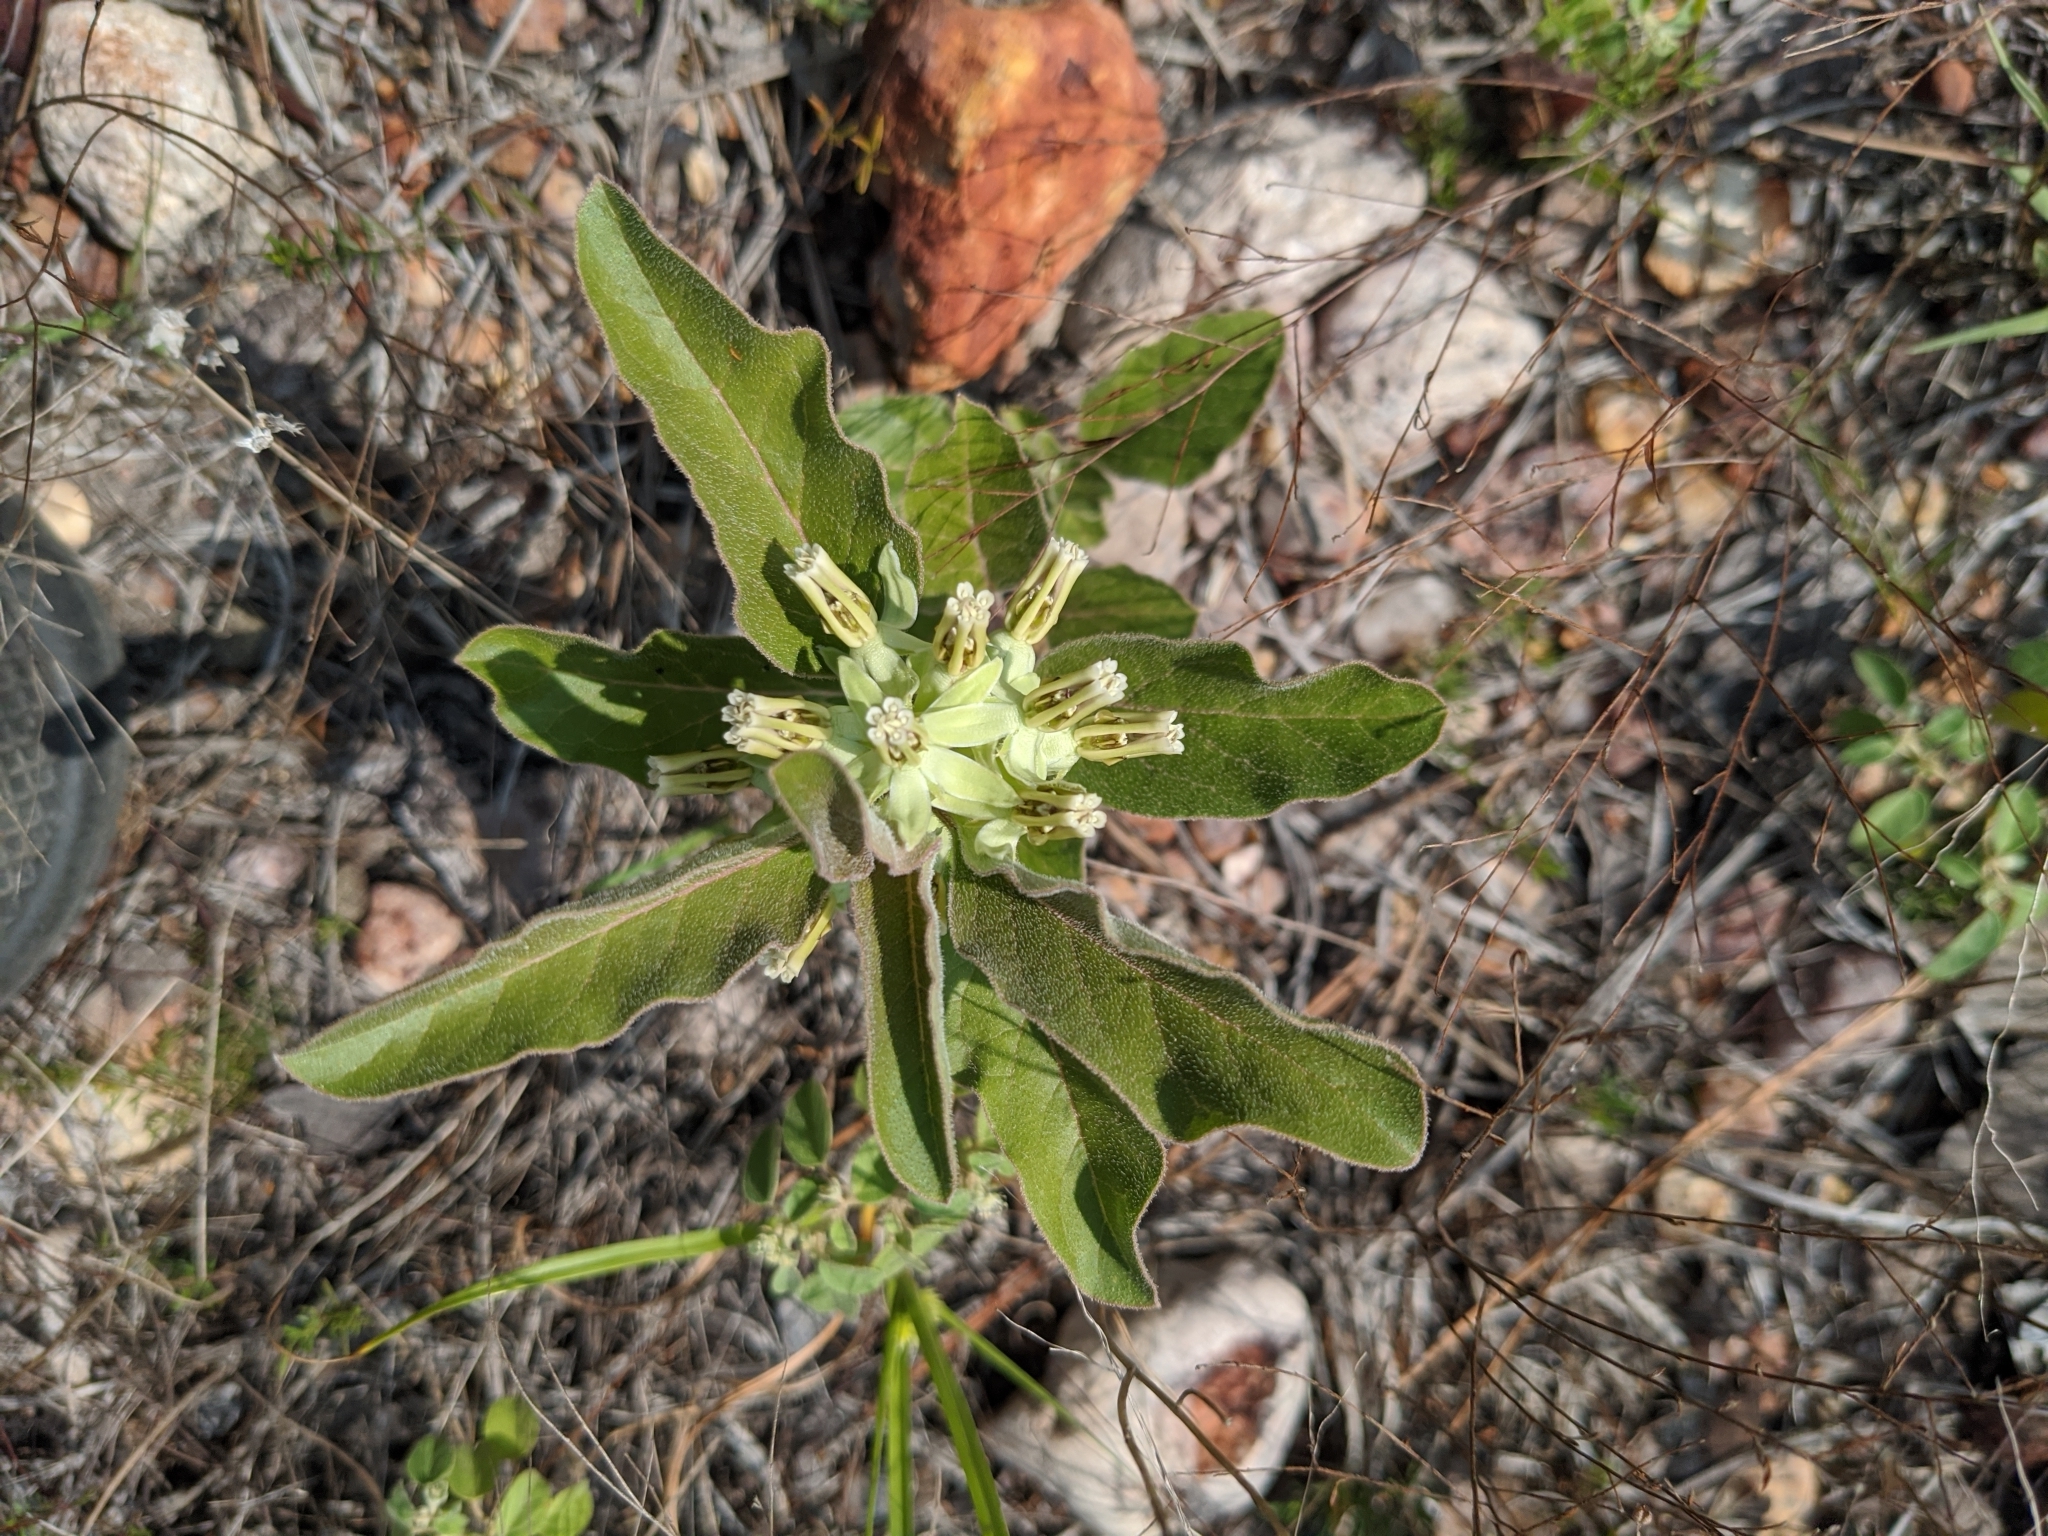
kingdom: Plantae
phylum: Tracheophyta
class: Magnoliopsida
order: Gentianales
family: Apocynaceae
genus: Asclepias
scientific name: Asclepias oenotheroides
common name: Zizotes milkweed
